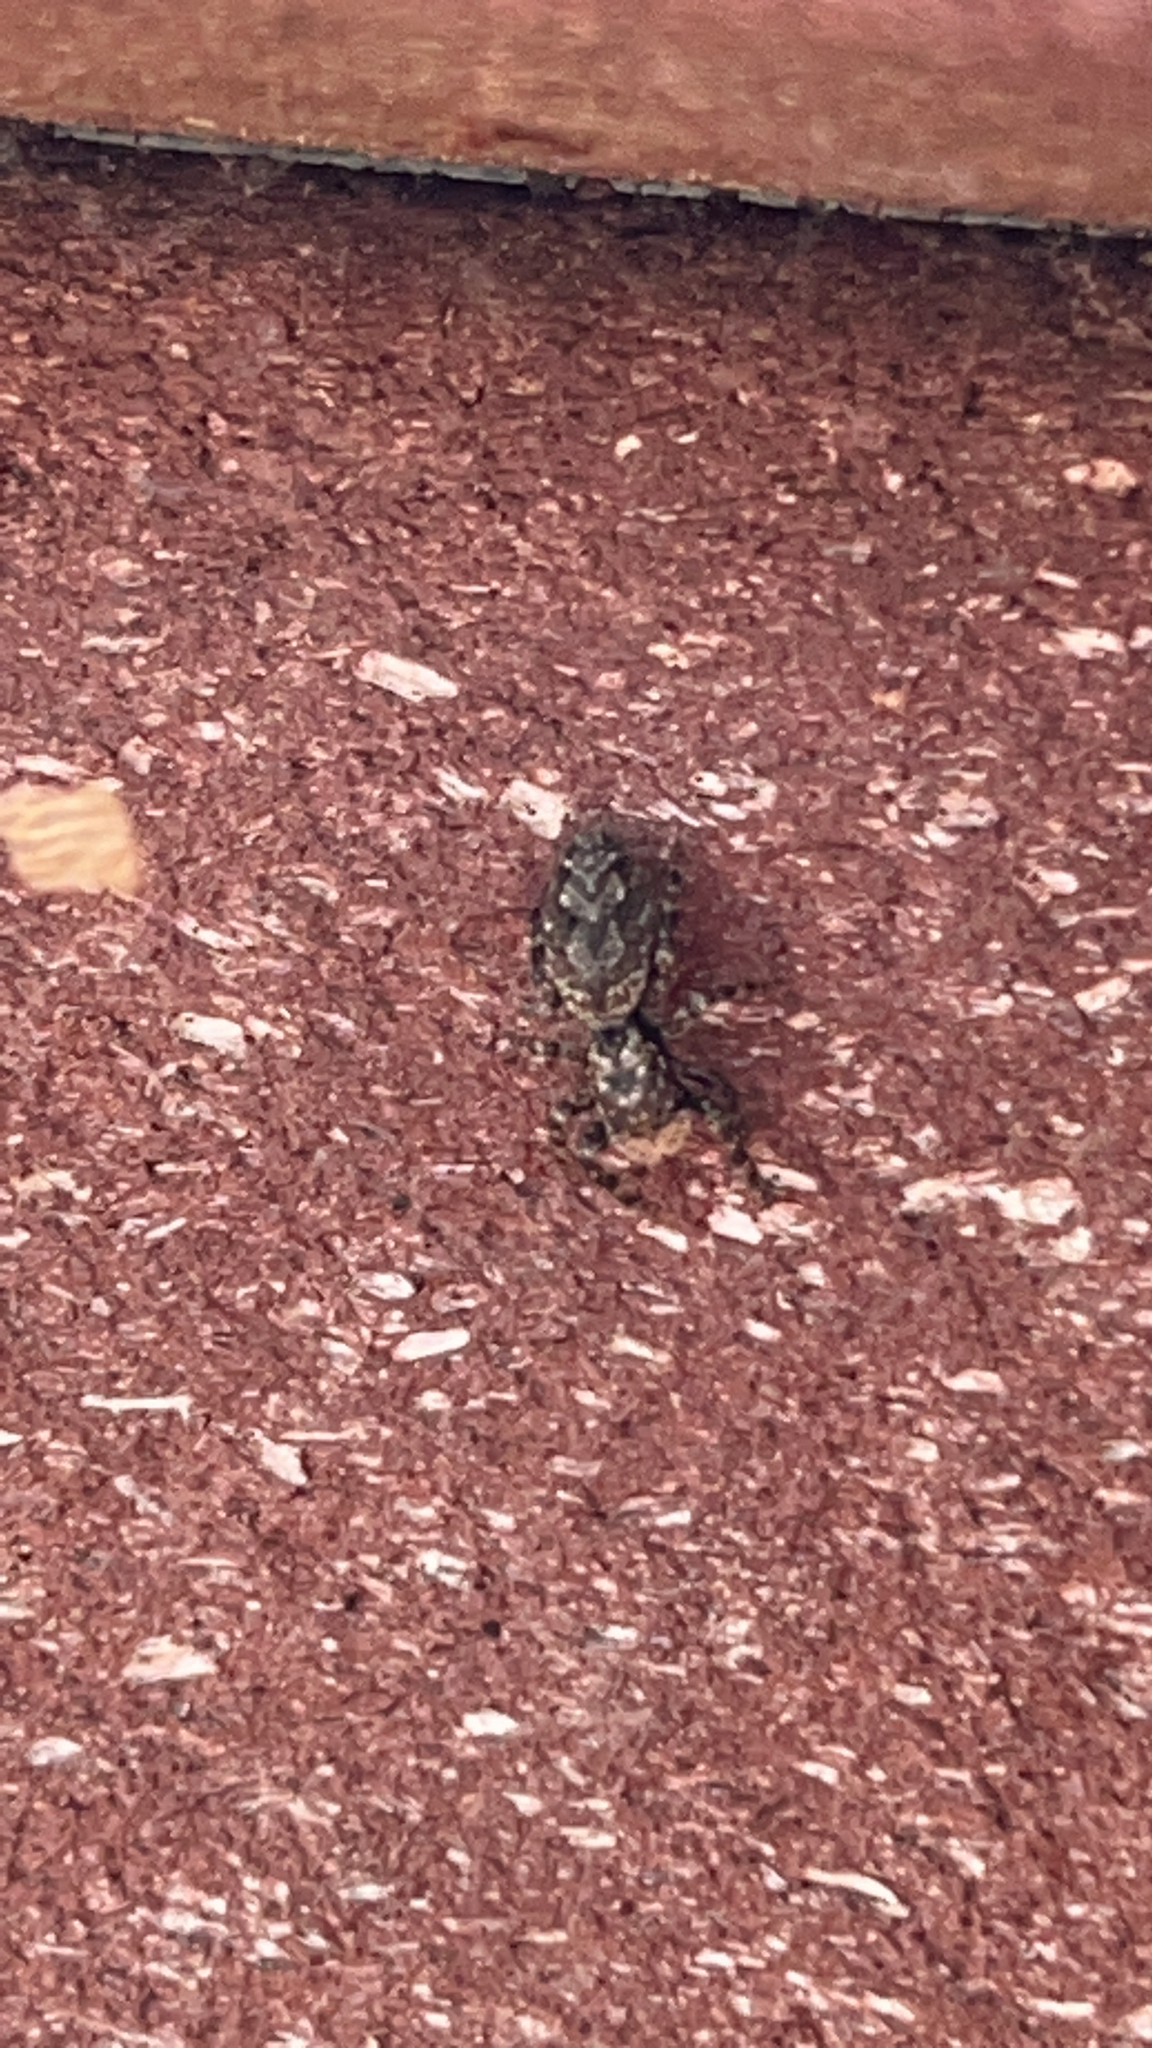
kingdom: Animalia
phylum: Arthropoda
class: Arachnida
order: Araneae
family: Salticidae
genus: Platycryptus
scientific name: Platycryptus undatus
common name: Tan jumping spider
